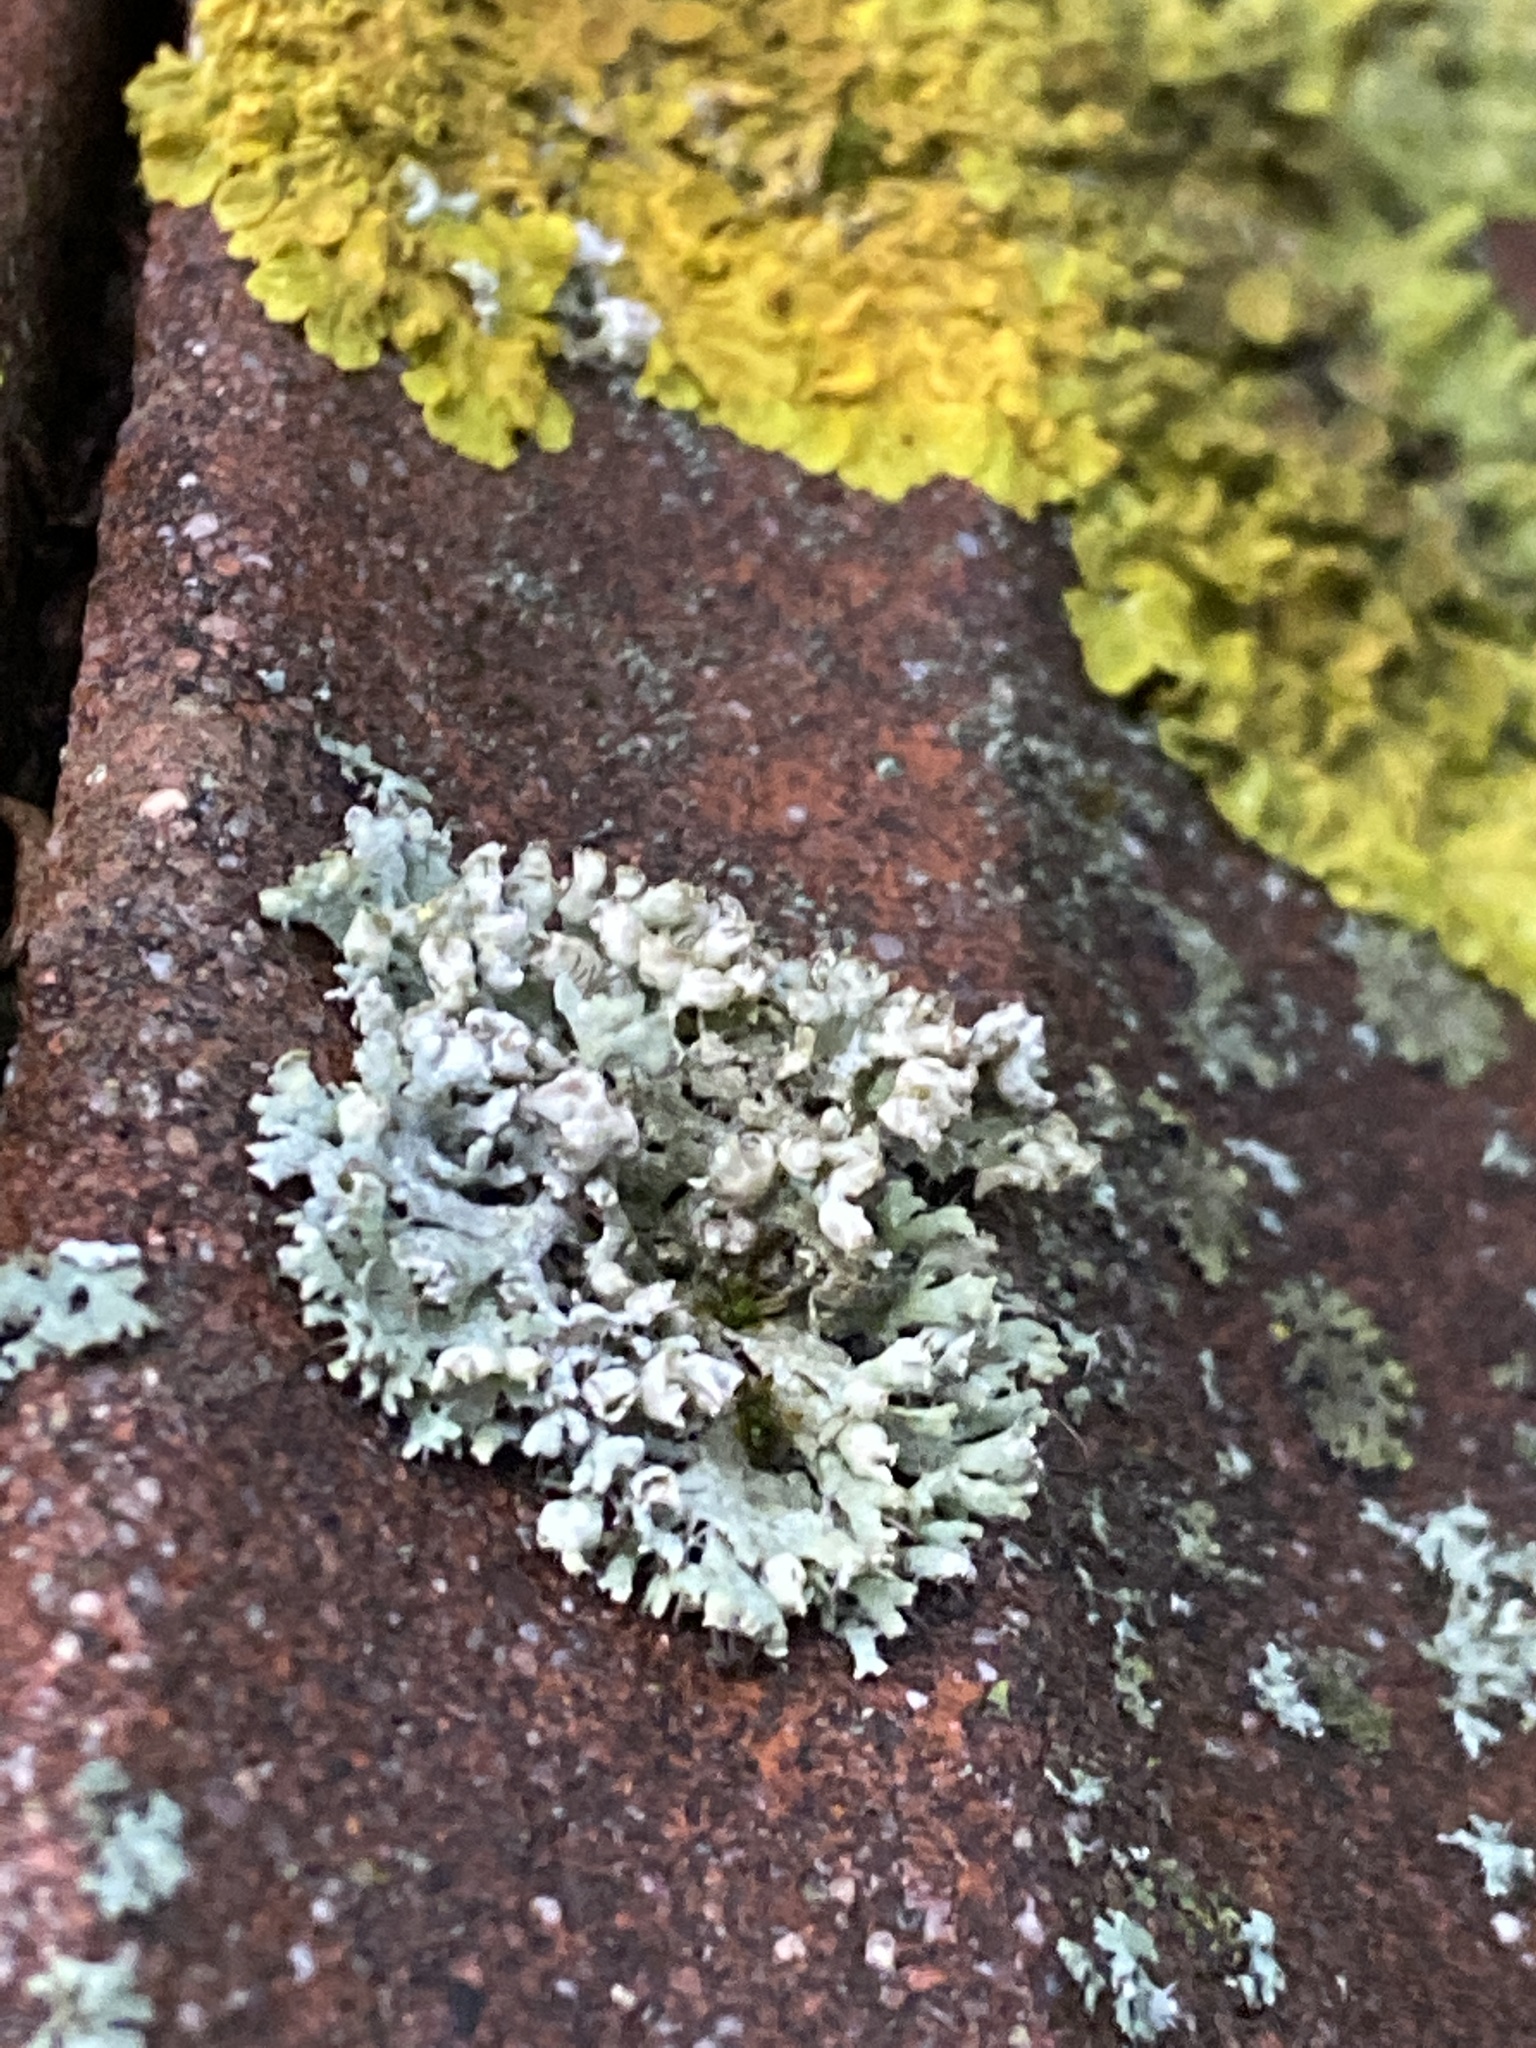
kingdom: Fungi
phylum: Ascomycota
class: Lecanoromycetes
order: Caliciales
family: Physciaceae
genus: Physcia
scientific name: Physcia adscendens
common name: Hooded rosette lichen
